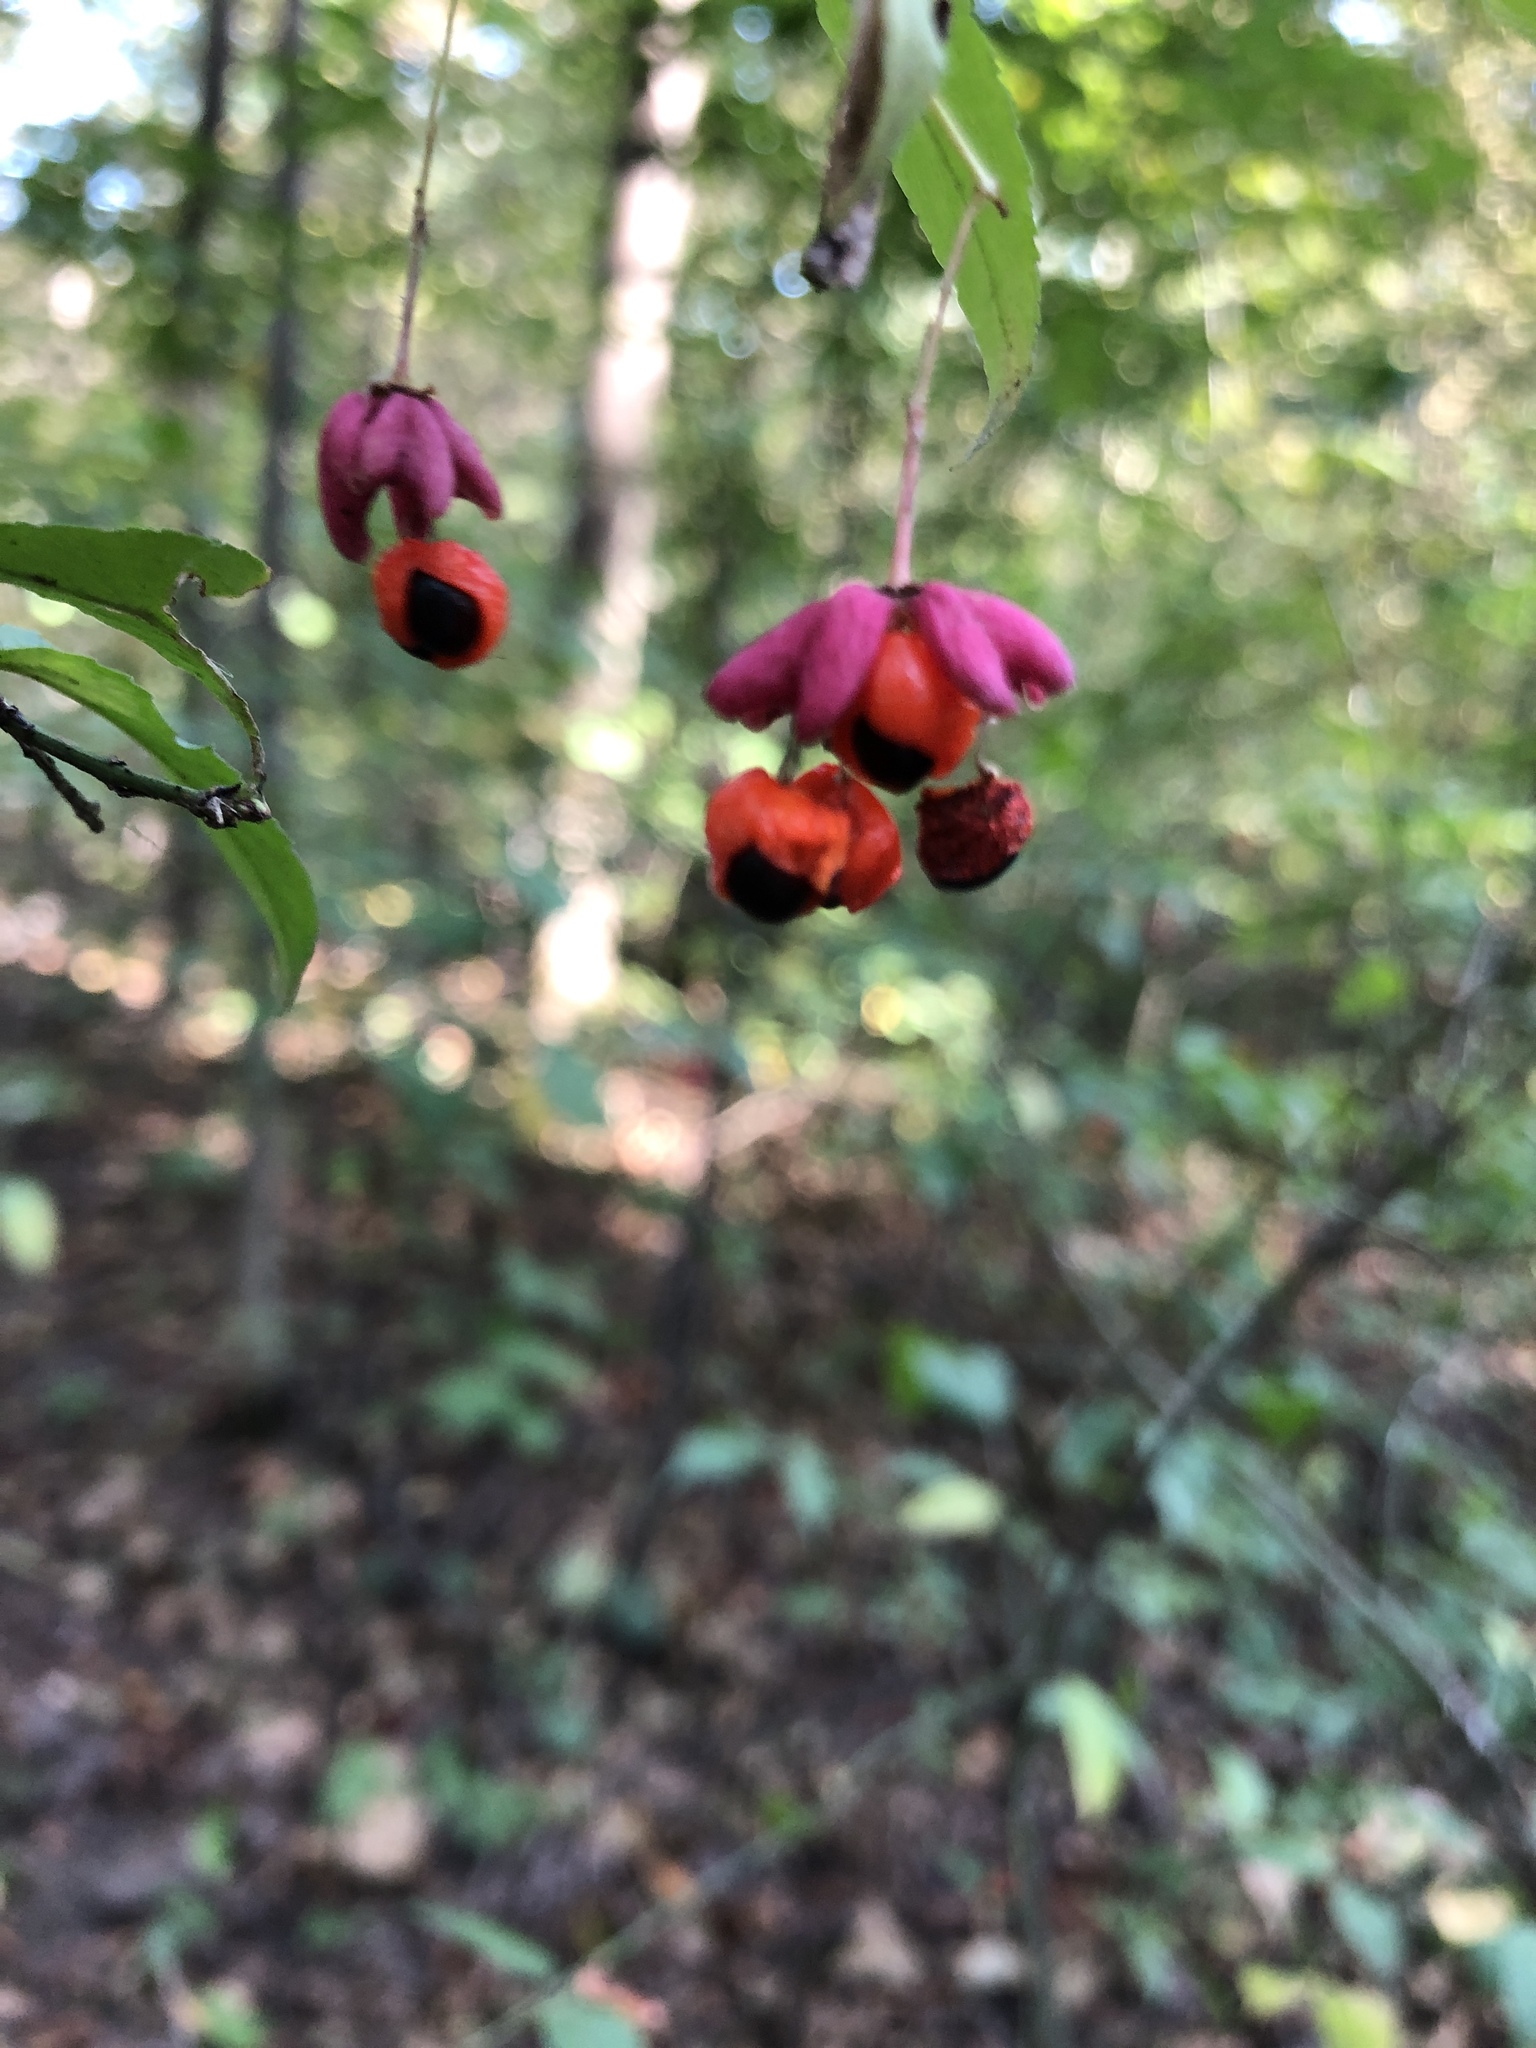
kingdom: Plantae
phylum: Tracheophyta
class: Magnoliopsida
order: Celastrales
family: Celastraceae
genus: Euonymus
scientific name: Euonymus verrucosus
